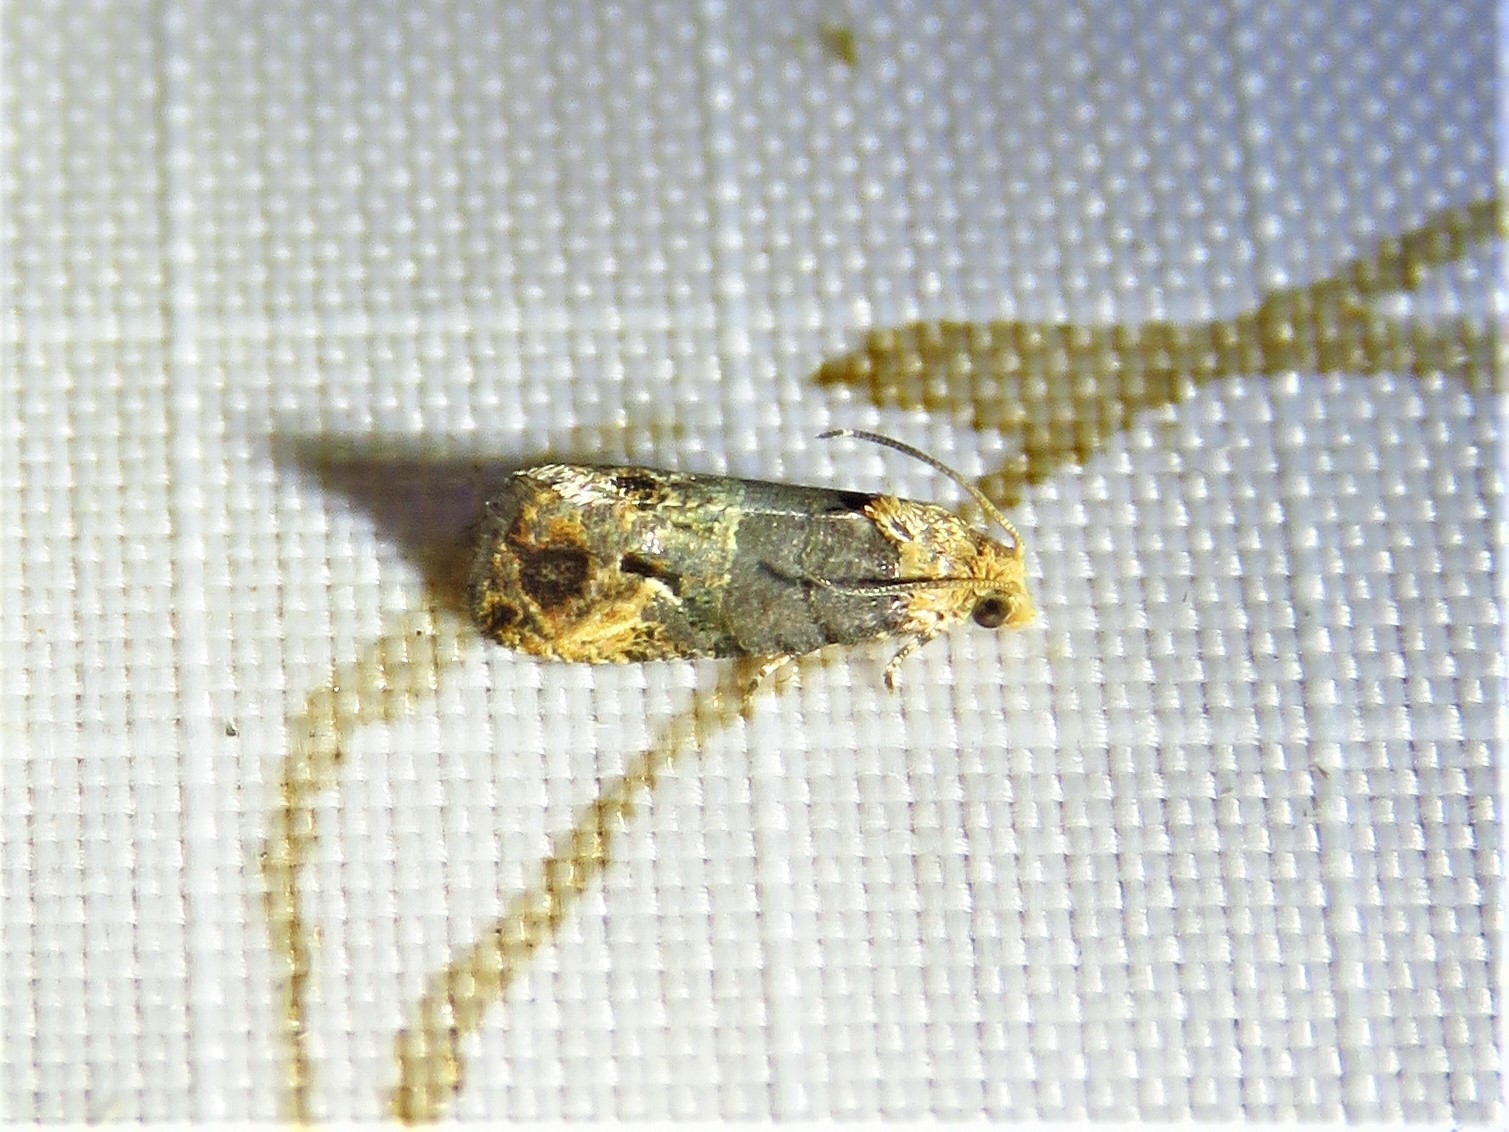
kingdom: Animalia
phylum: Arthropoda
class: Insecta
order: Lepidoptera
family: Tortricidae
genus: Paralobesia
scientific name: Paralobesia viteana
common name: Grape berry moth
